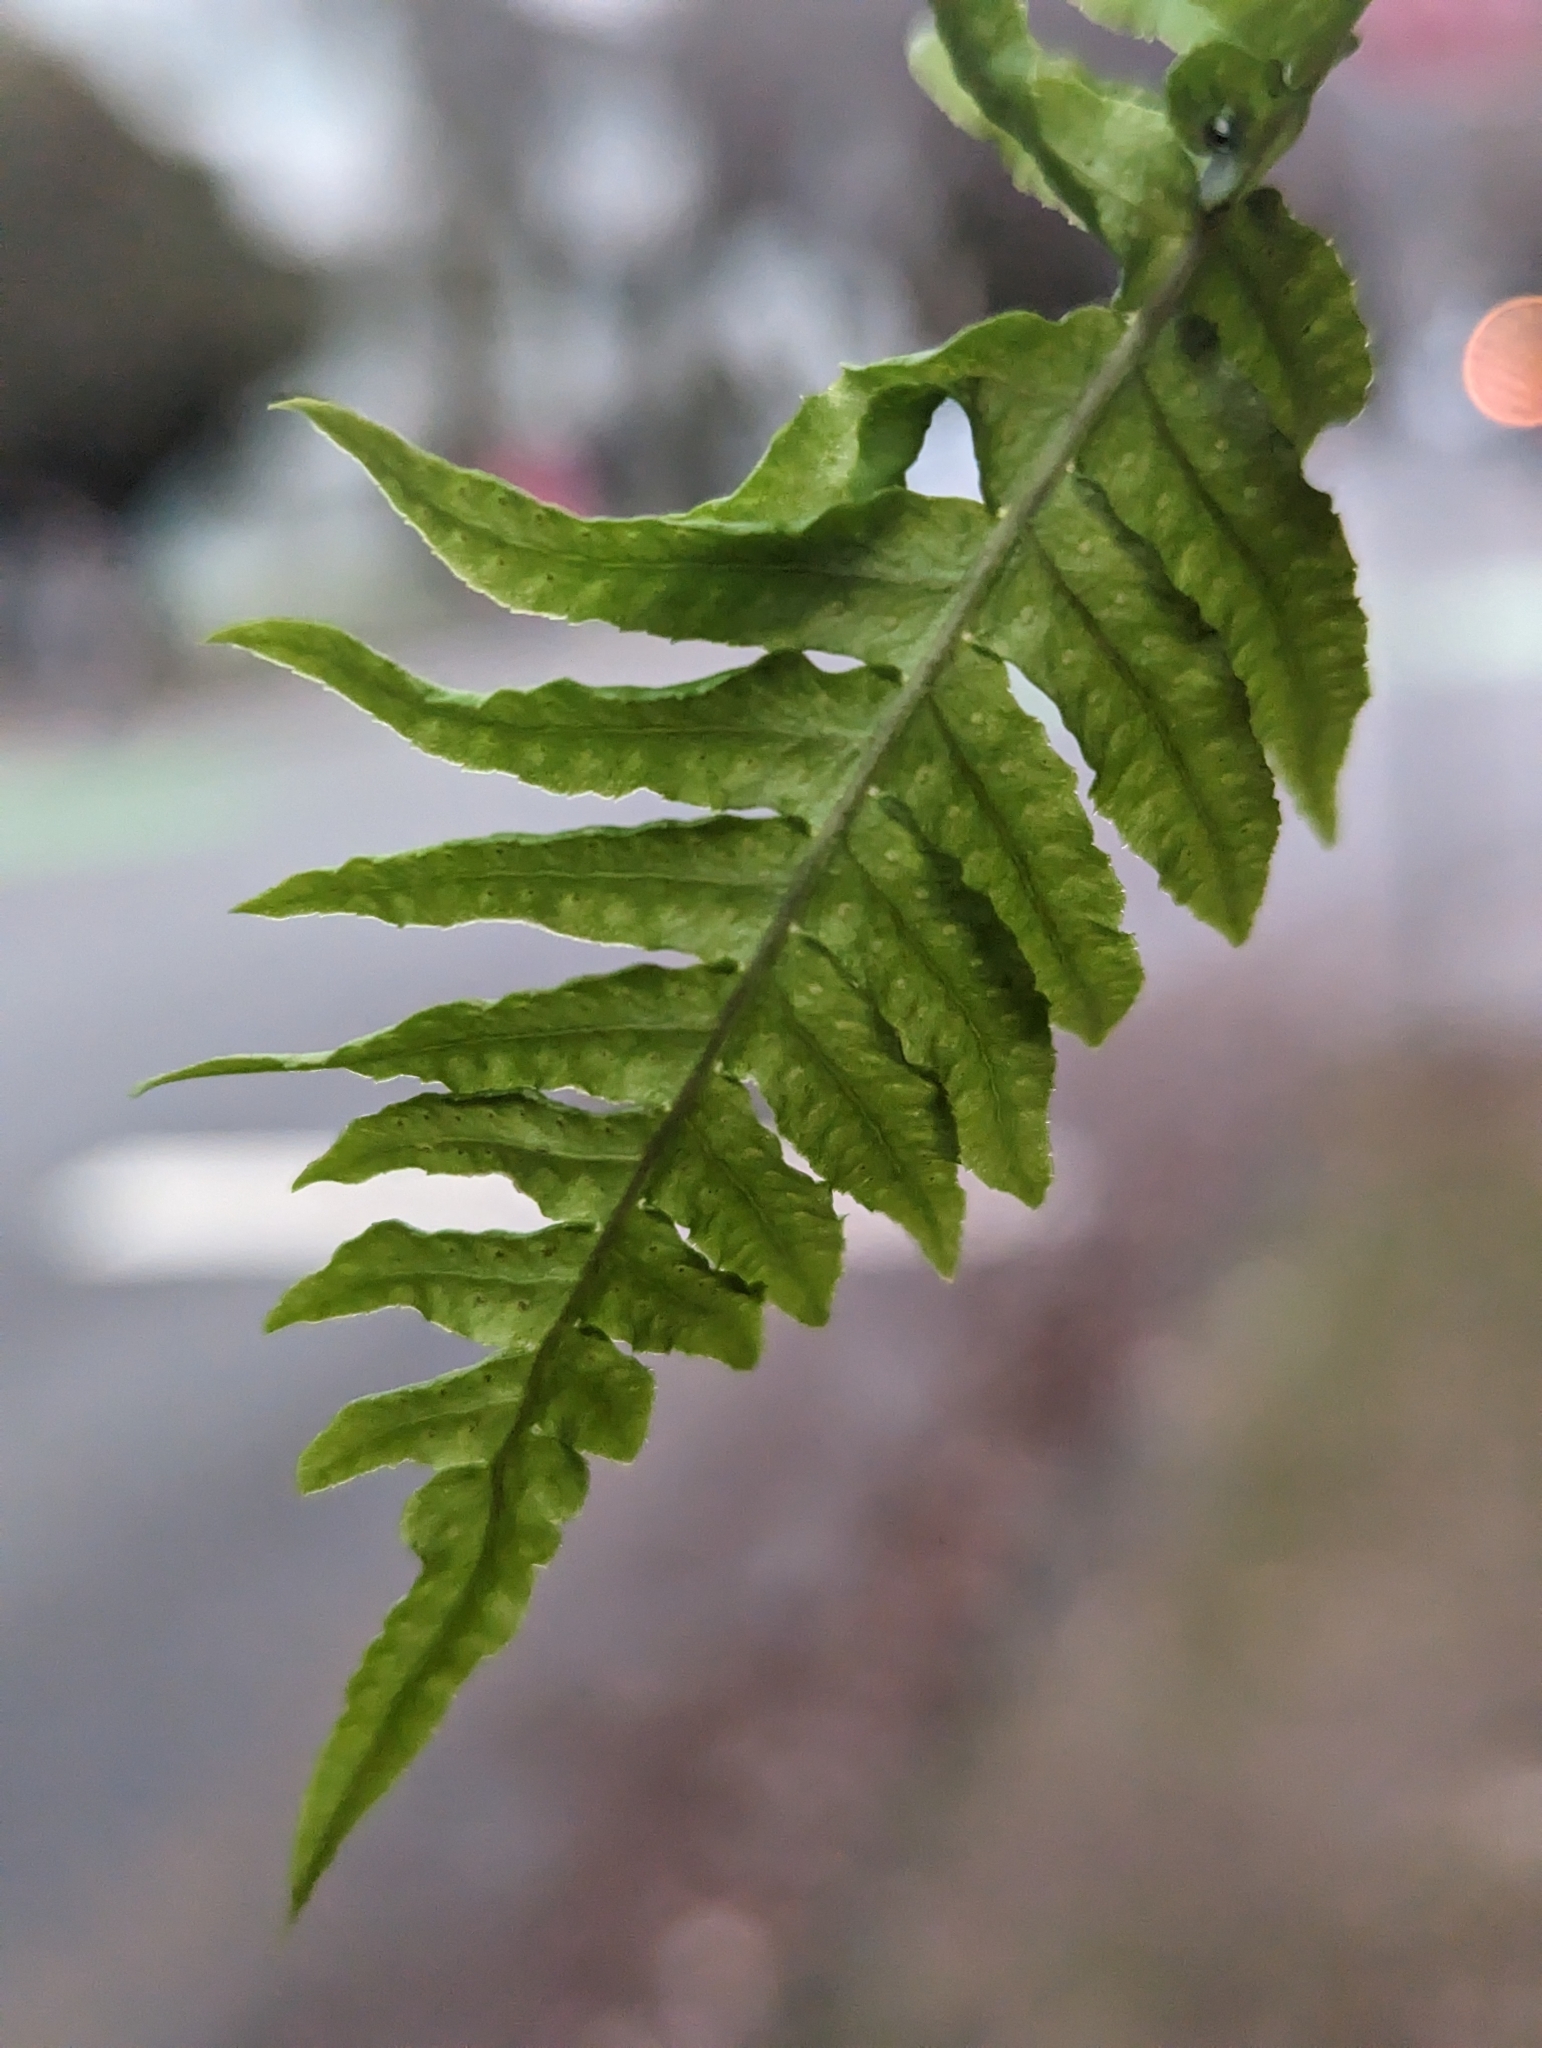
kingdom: Plantae
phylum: Tracheophyta
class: Polypodiopsida
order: Polypodiales
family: Polypodiaceae
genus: Polypodium
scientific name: Polypodium glycyrrhiza
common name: Licorice fern
